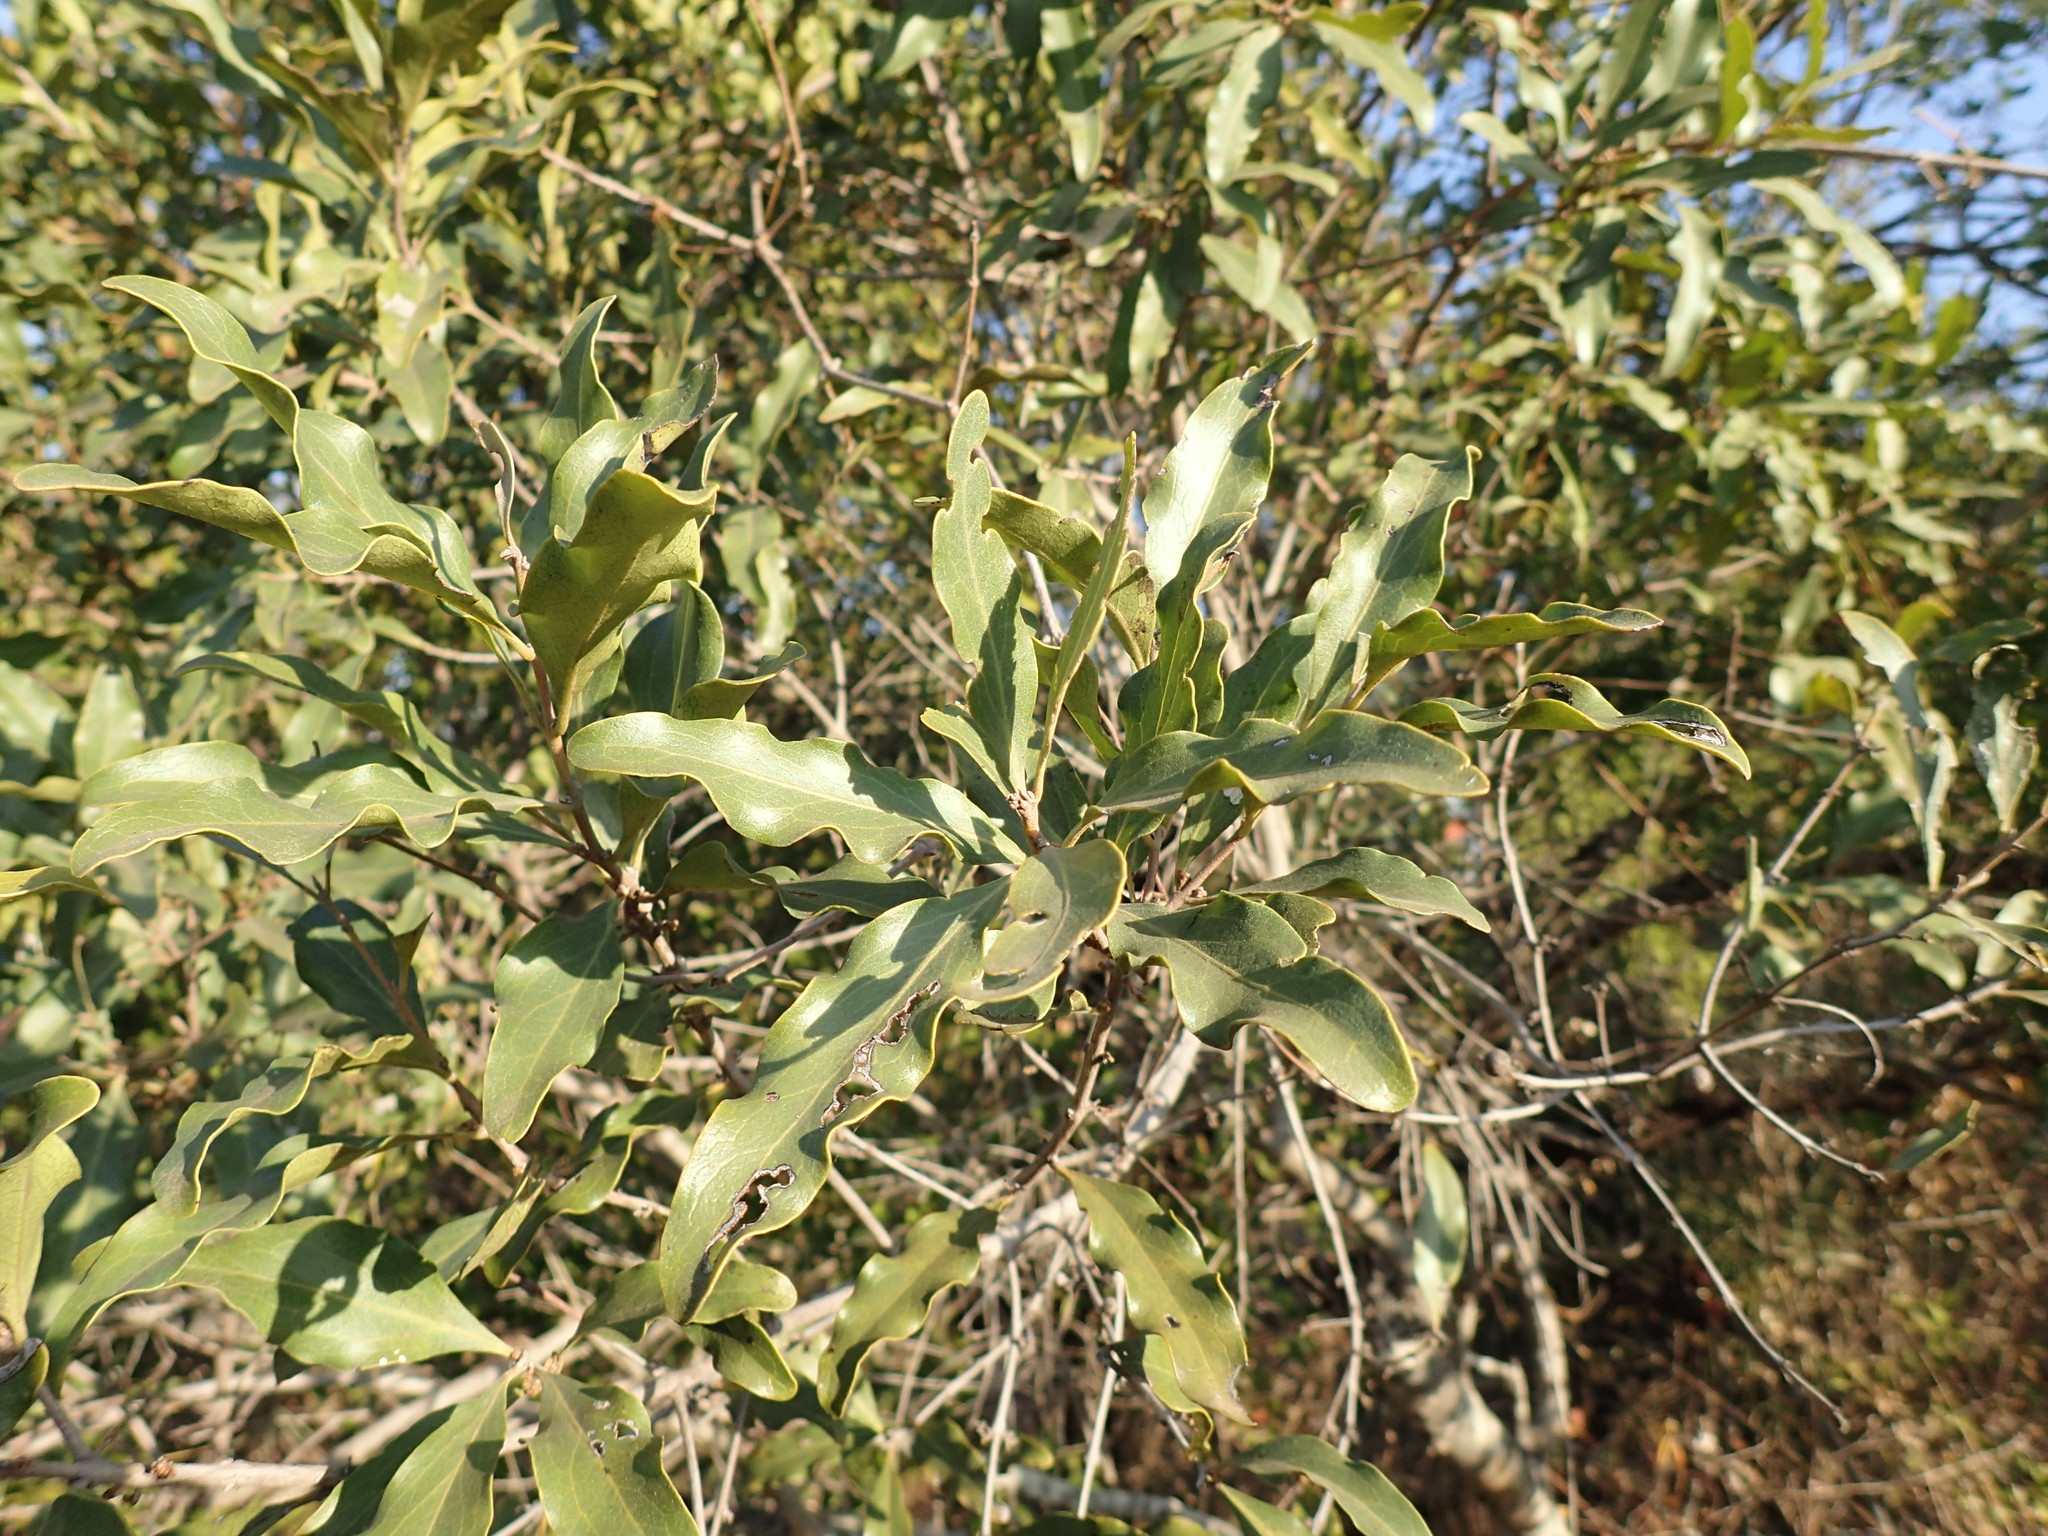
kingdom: Plantae
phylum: Tracheophyta
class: Magnoliopsida
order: Ericales
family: Ebenaceae
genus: Euclea
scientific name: Euclea divinorum
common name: Diamond-leaved euclea
